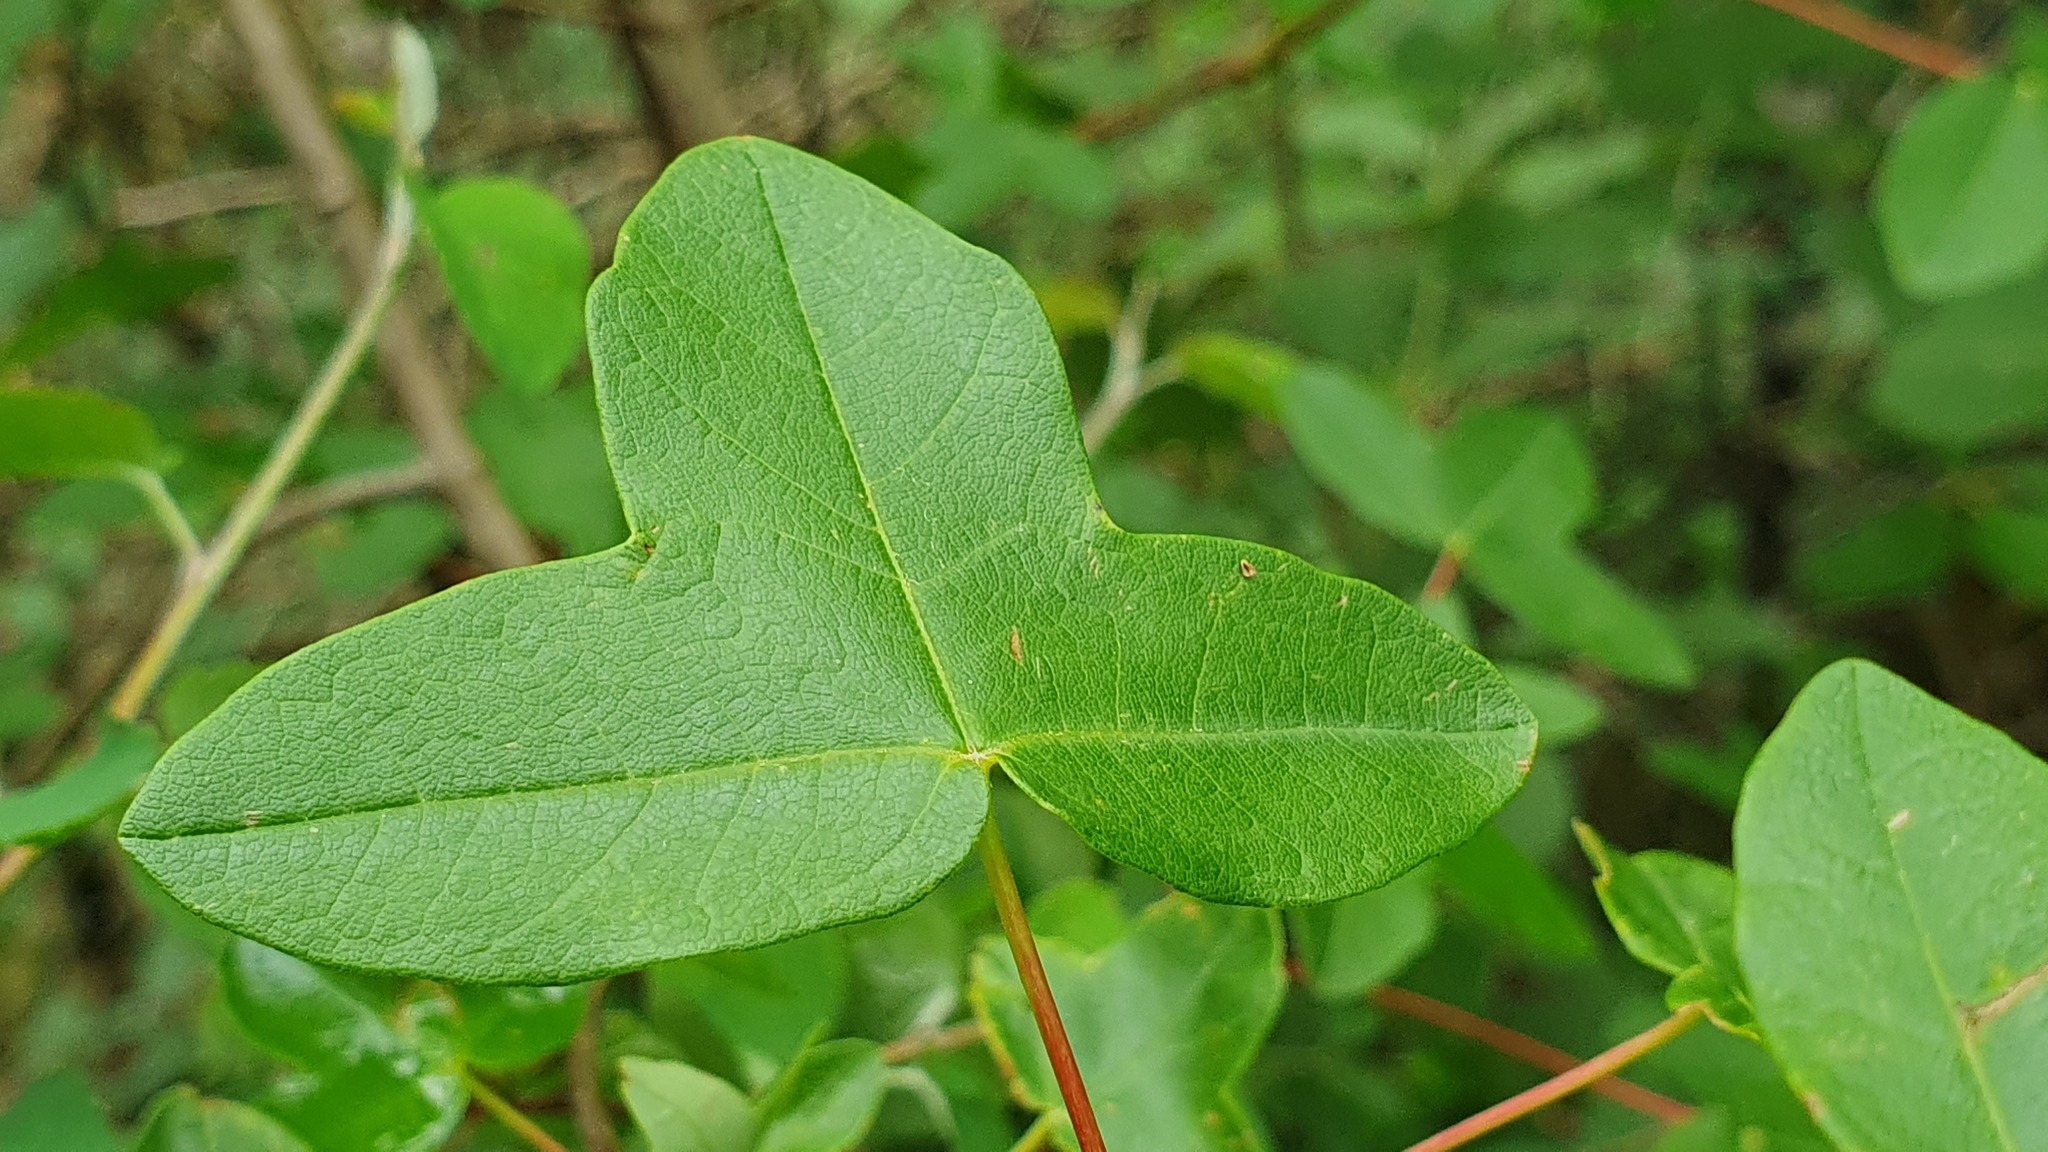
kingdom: Plantae
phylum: Tracheophyta
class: Magnoliopsida
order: Sapindales
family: Sapindaceae
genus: Acer
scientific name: Acer monspessulanum
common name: Montpellier maple
